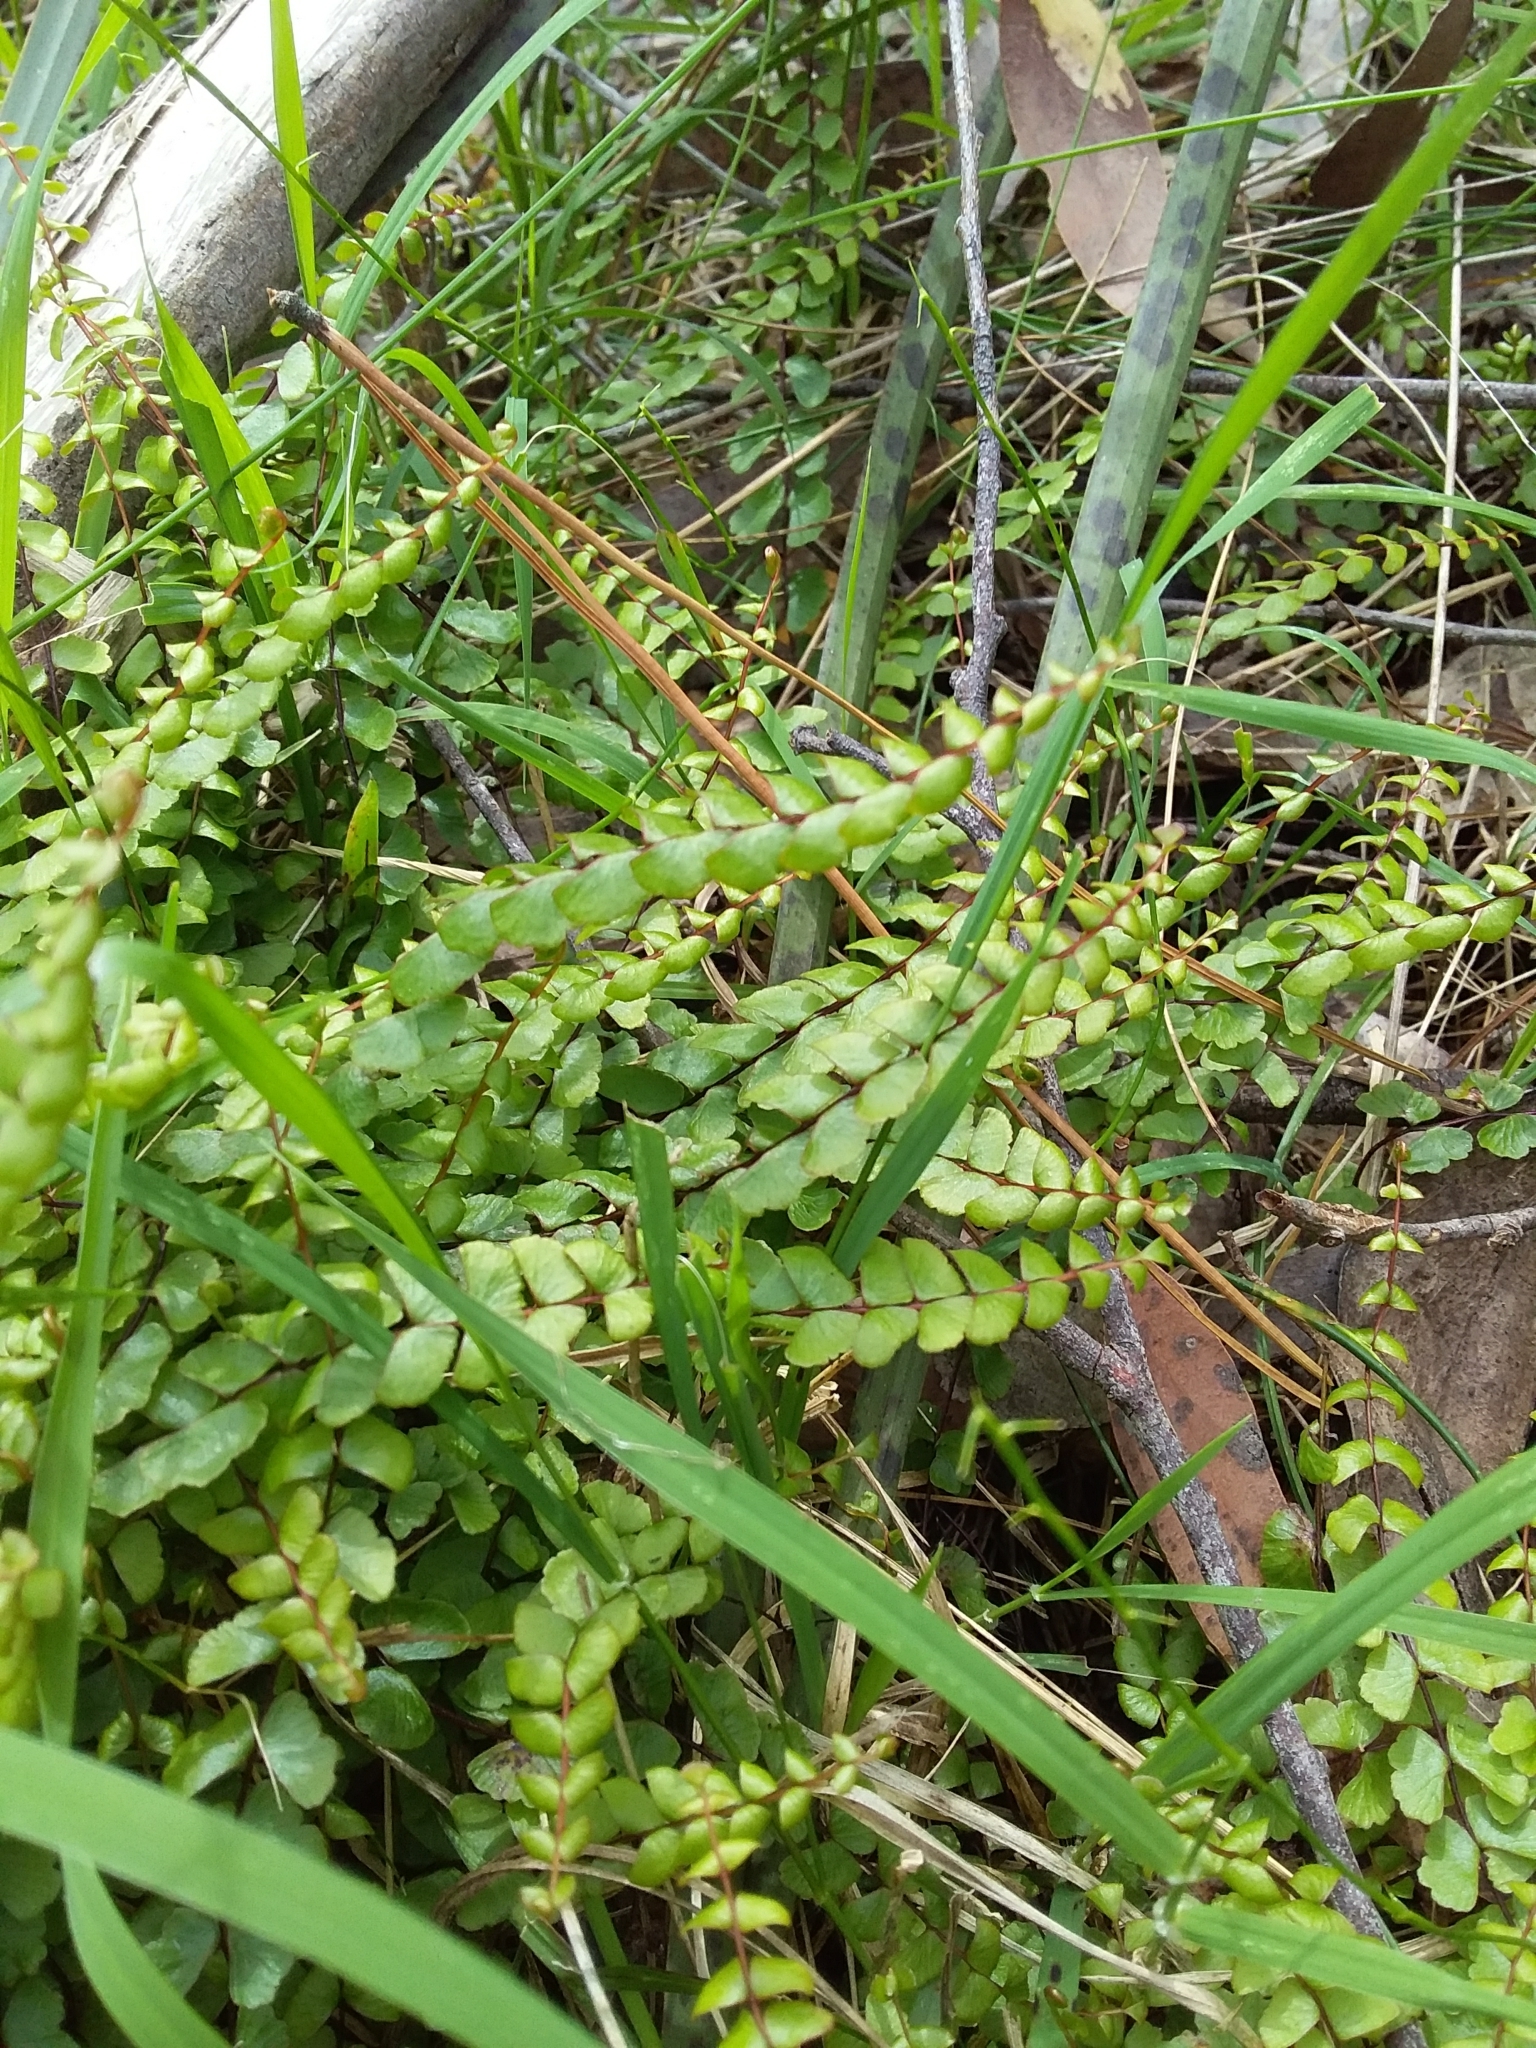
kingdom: Plantae
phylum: Tracheophyta
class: Polypodiopsida
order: Polypodiales
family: Lindsaeaceae
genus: Lindsaea
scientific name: Lindsaea linearis
